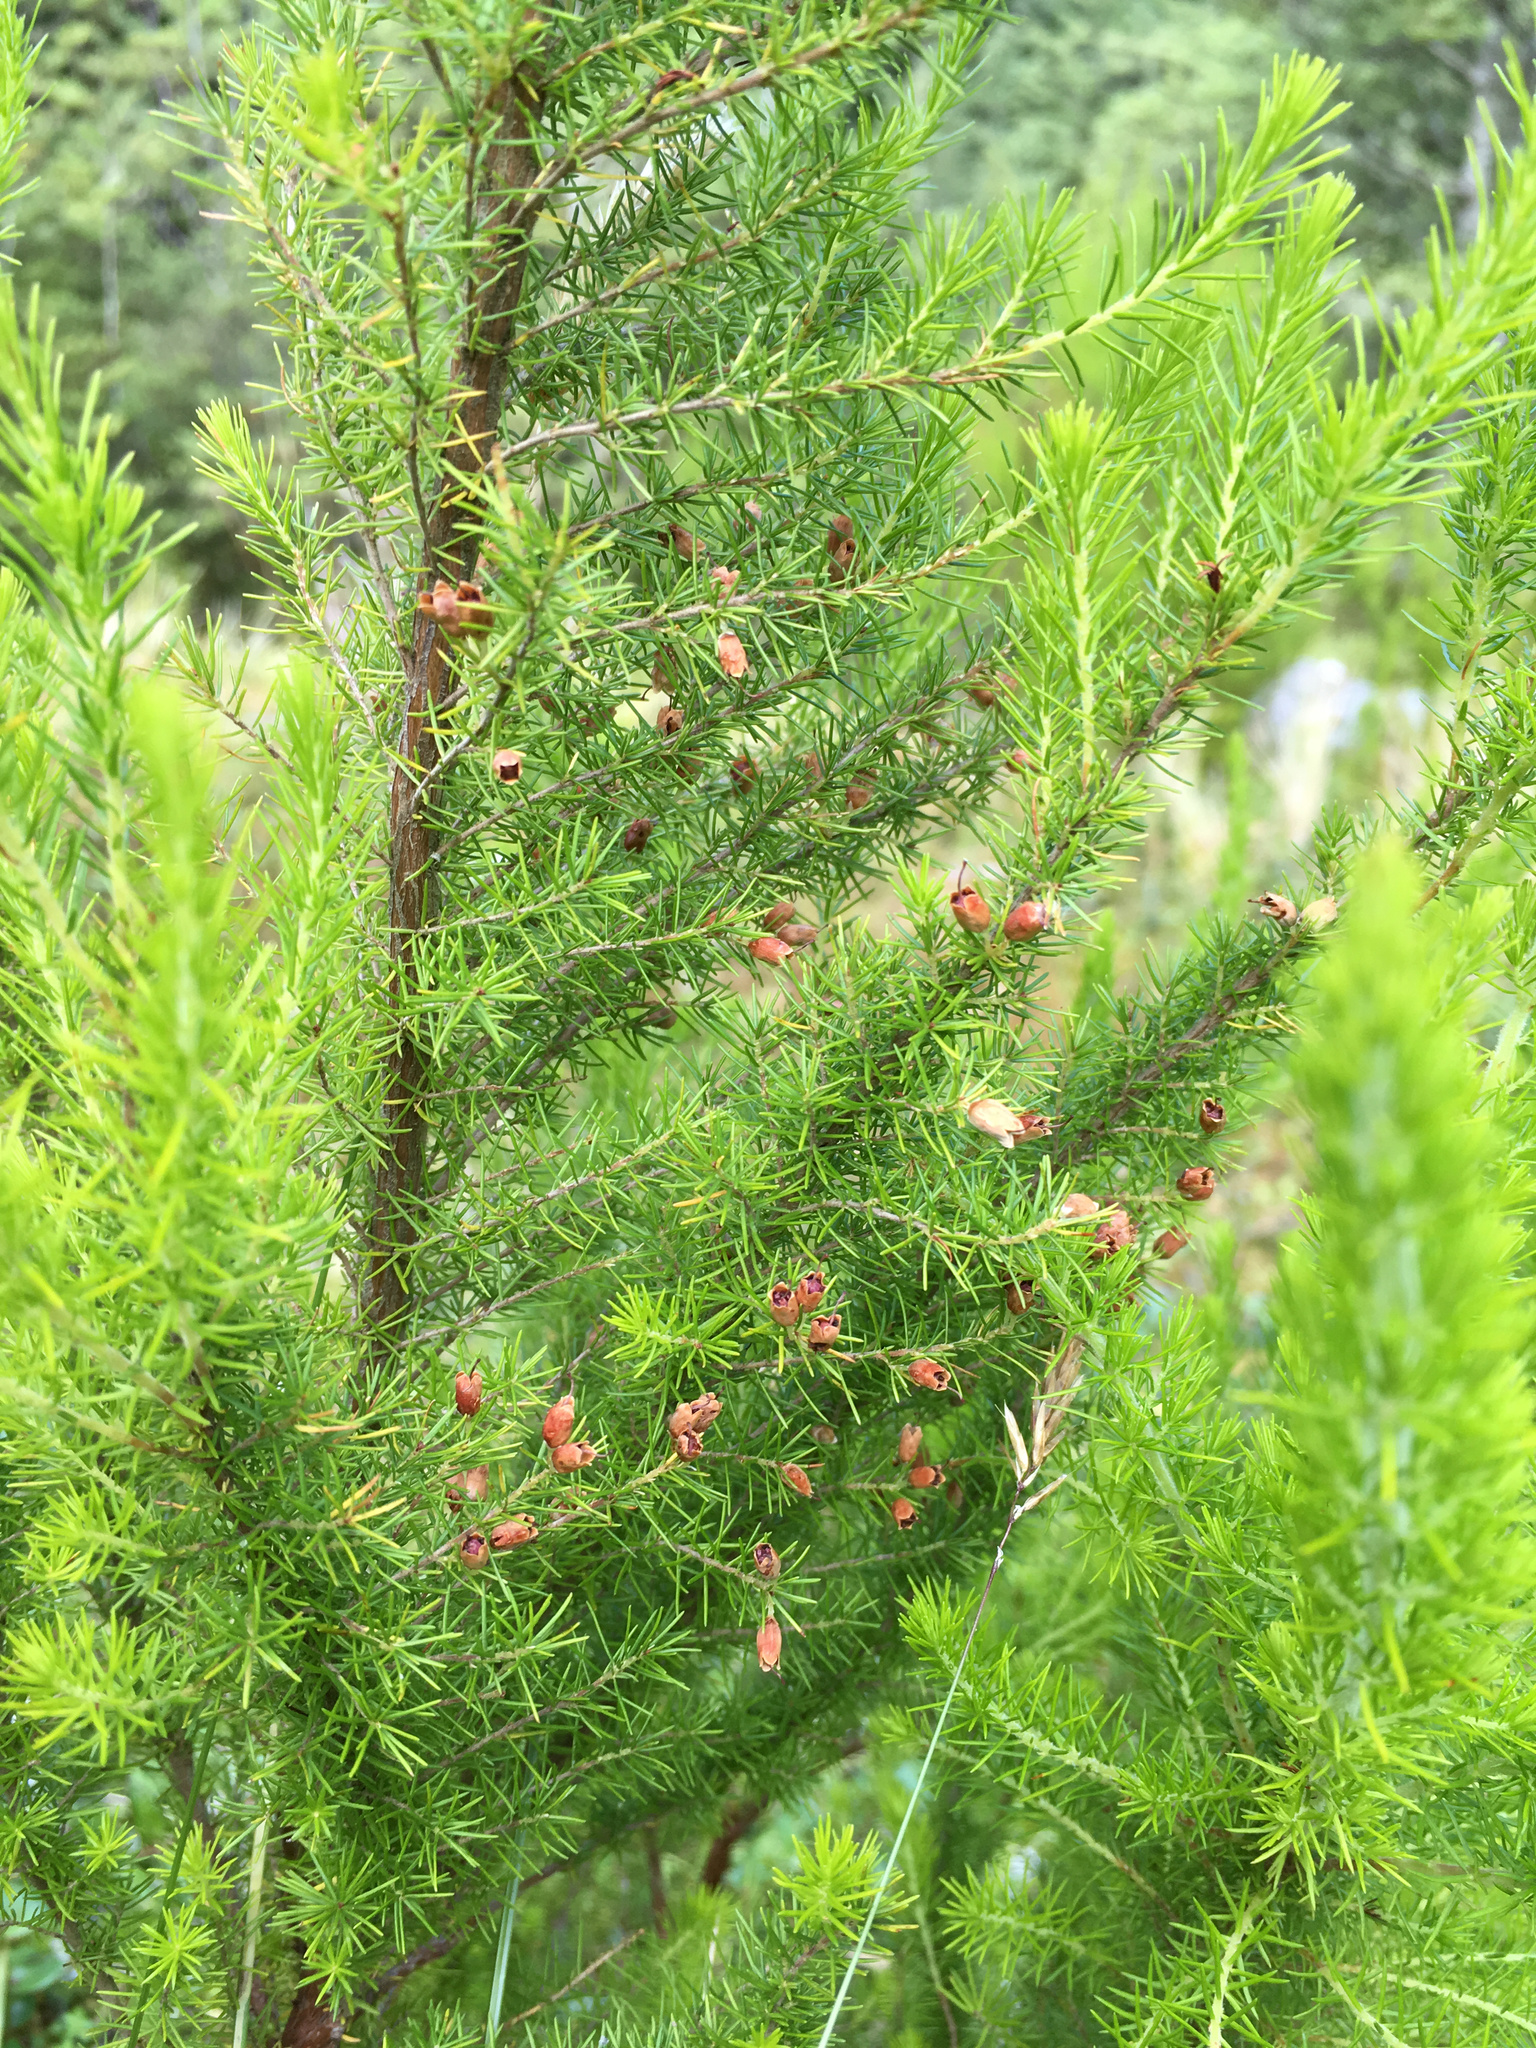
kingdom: Plantae
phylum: Tracheophyta
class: Magnoliopsida
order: Ericales
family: Ericaceae
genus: Erica
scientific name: Erica lusitanica
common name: Spanish heath
